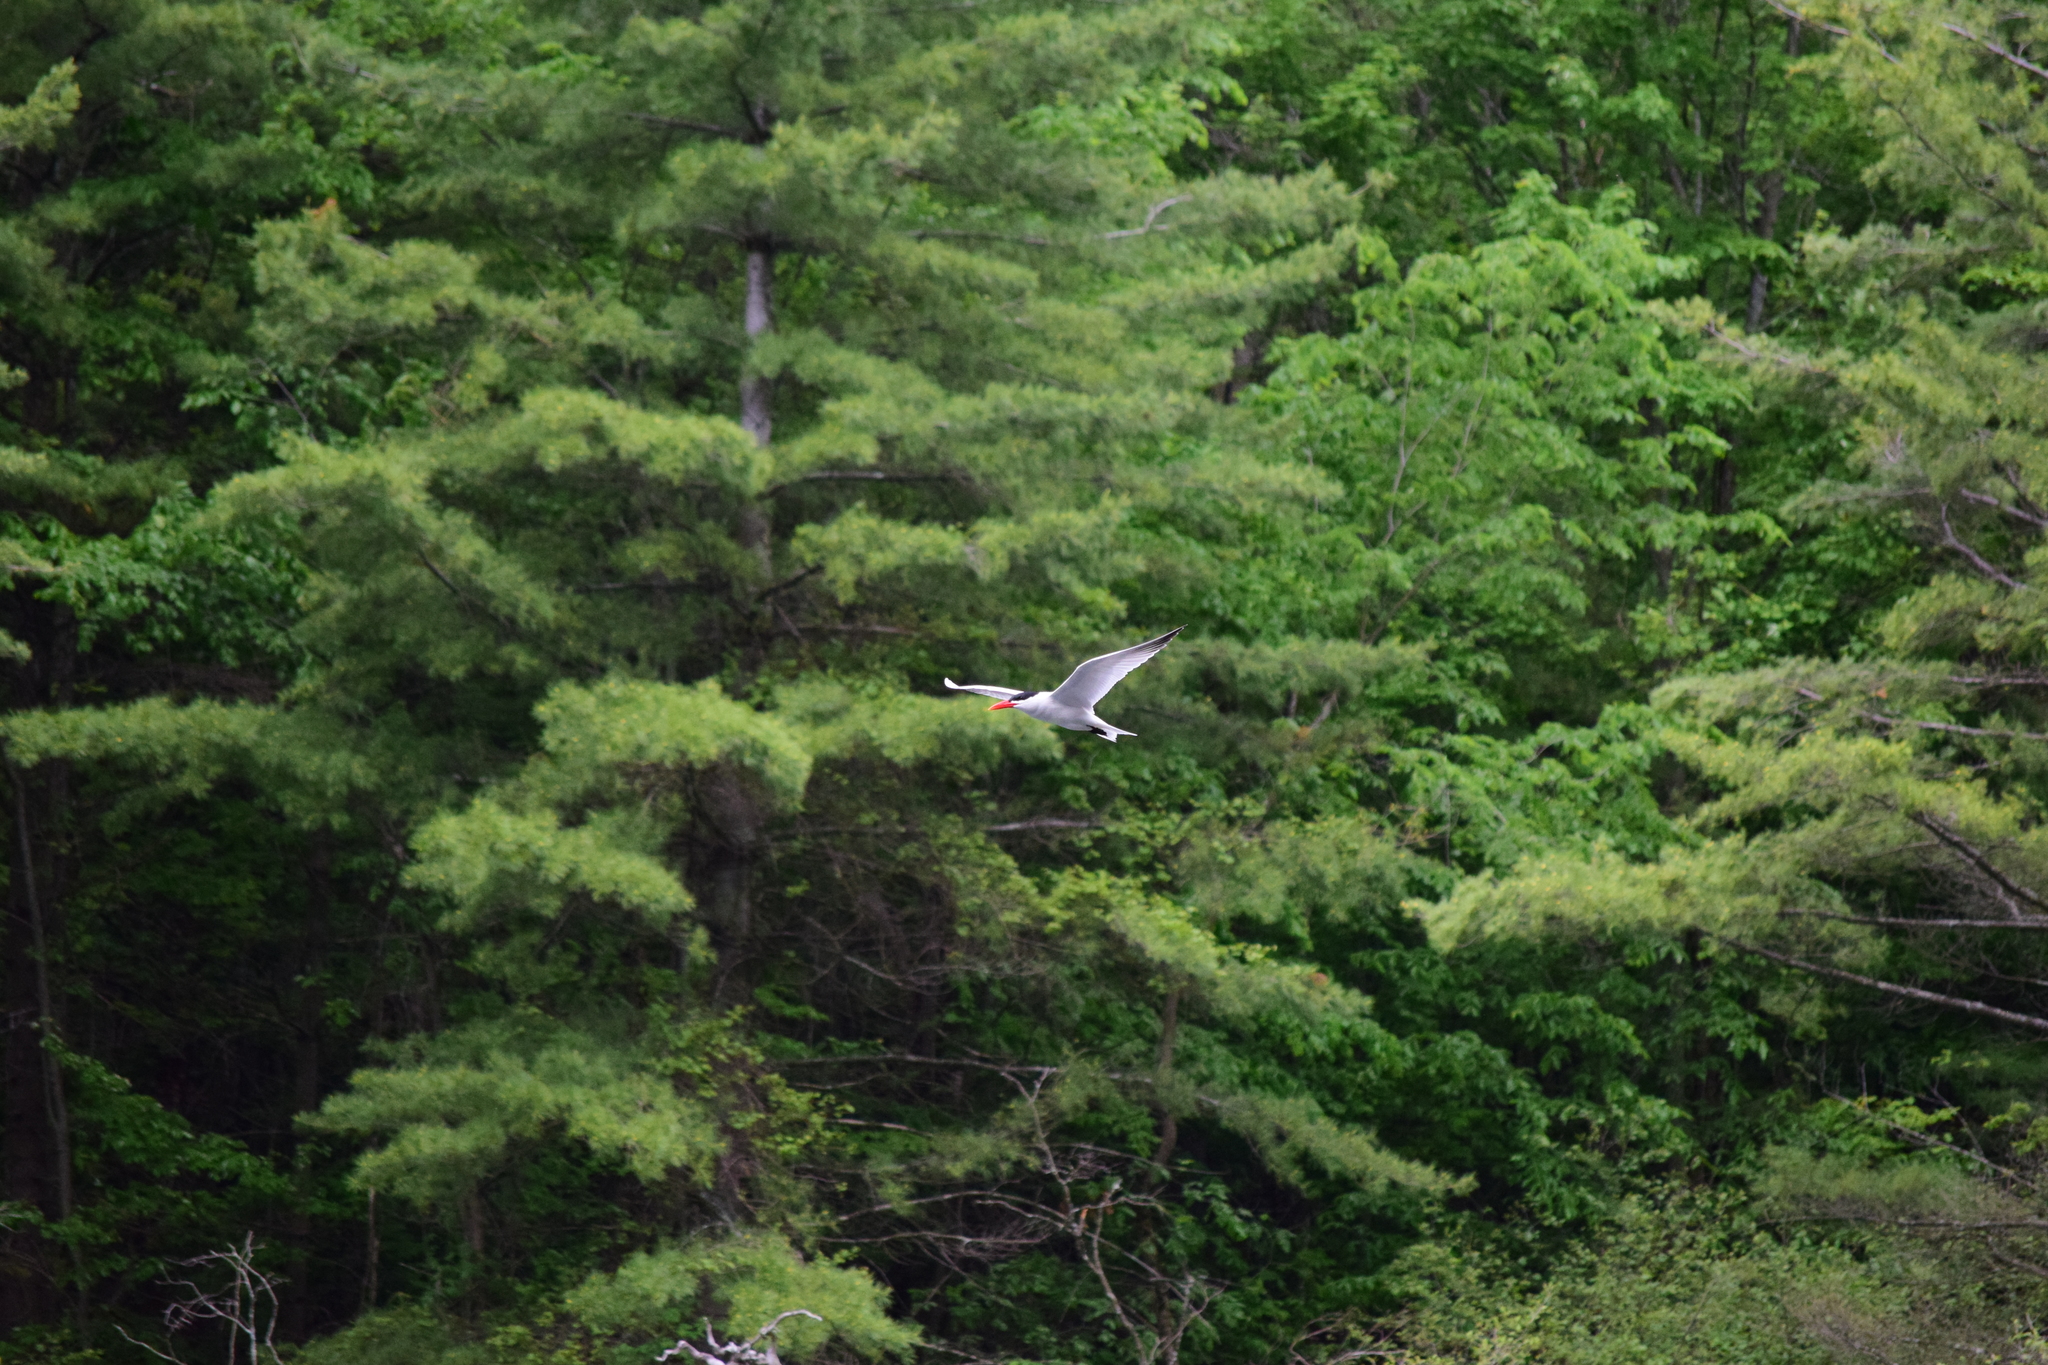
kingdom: Animalia
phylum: Chordata
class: Aves
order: Charadriiformes
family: Laridae
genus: Hydroprogne
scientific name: Hydroprogne caspia
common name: Caspian tern
